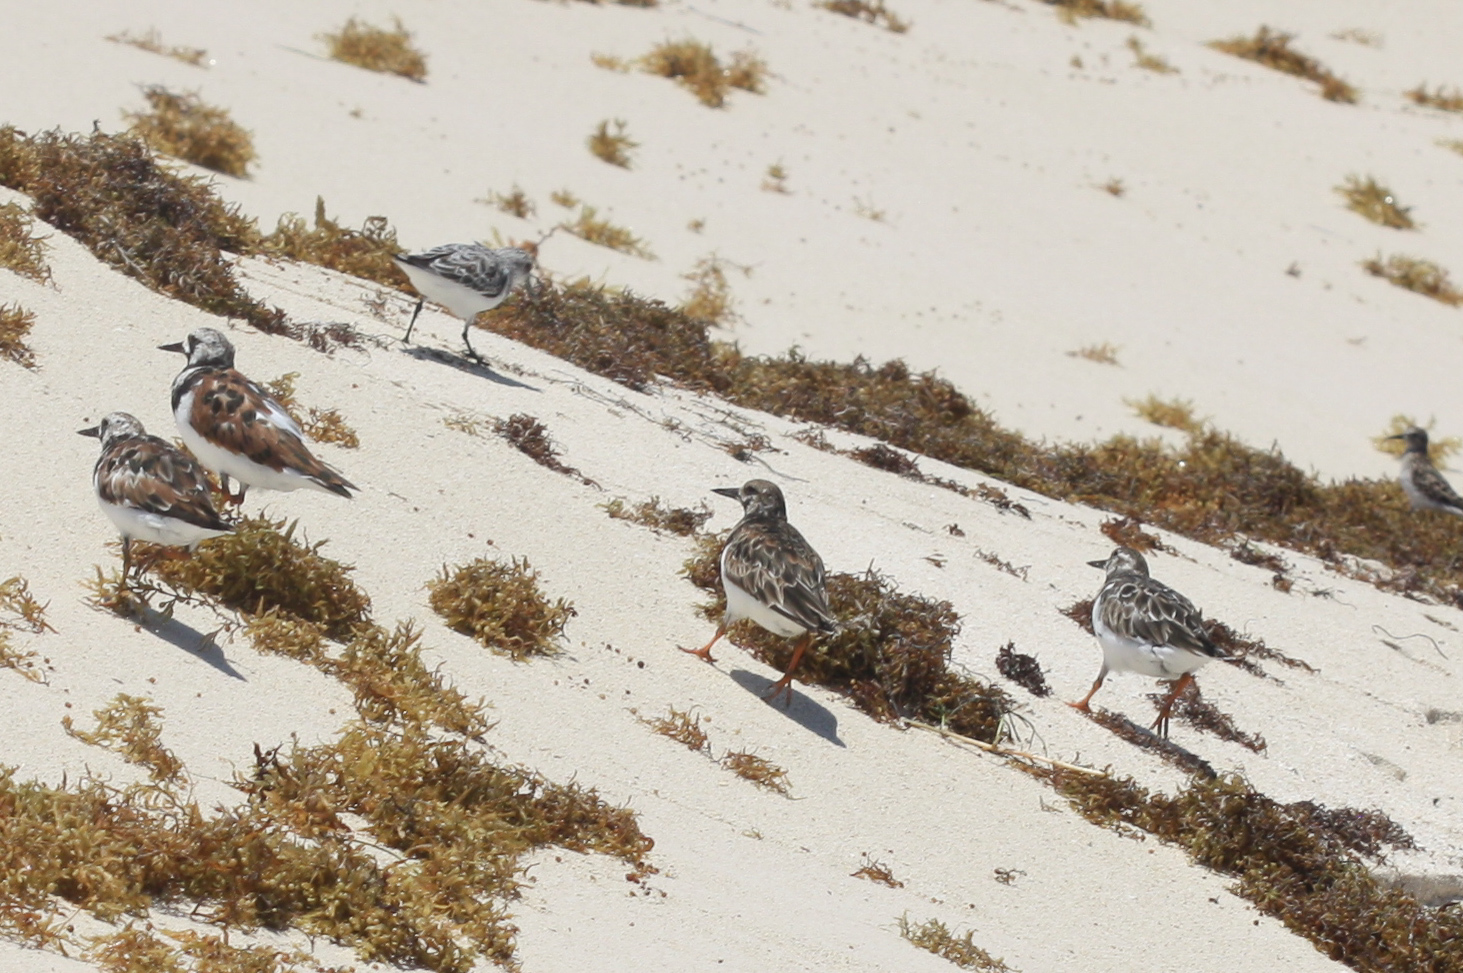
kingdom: Animalia
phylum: Chordata
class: Aves
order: Charadriiformes
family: Scolopacidae
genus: Arenaria
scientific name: Arenaria interpres
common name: Ruddy turnstone
